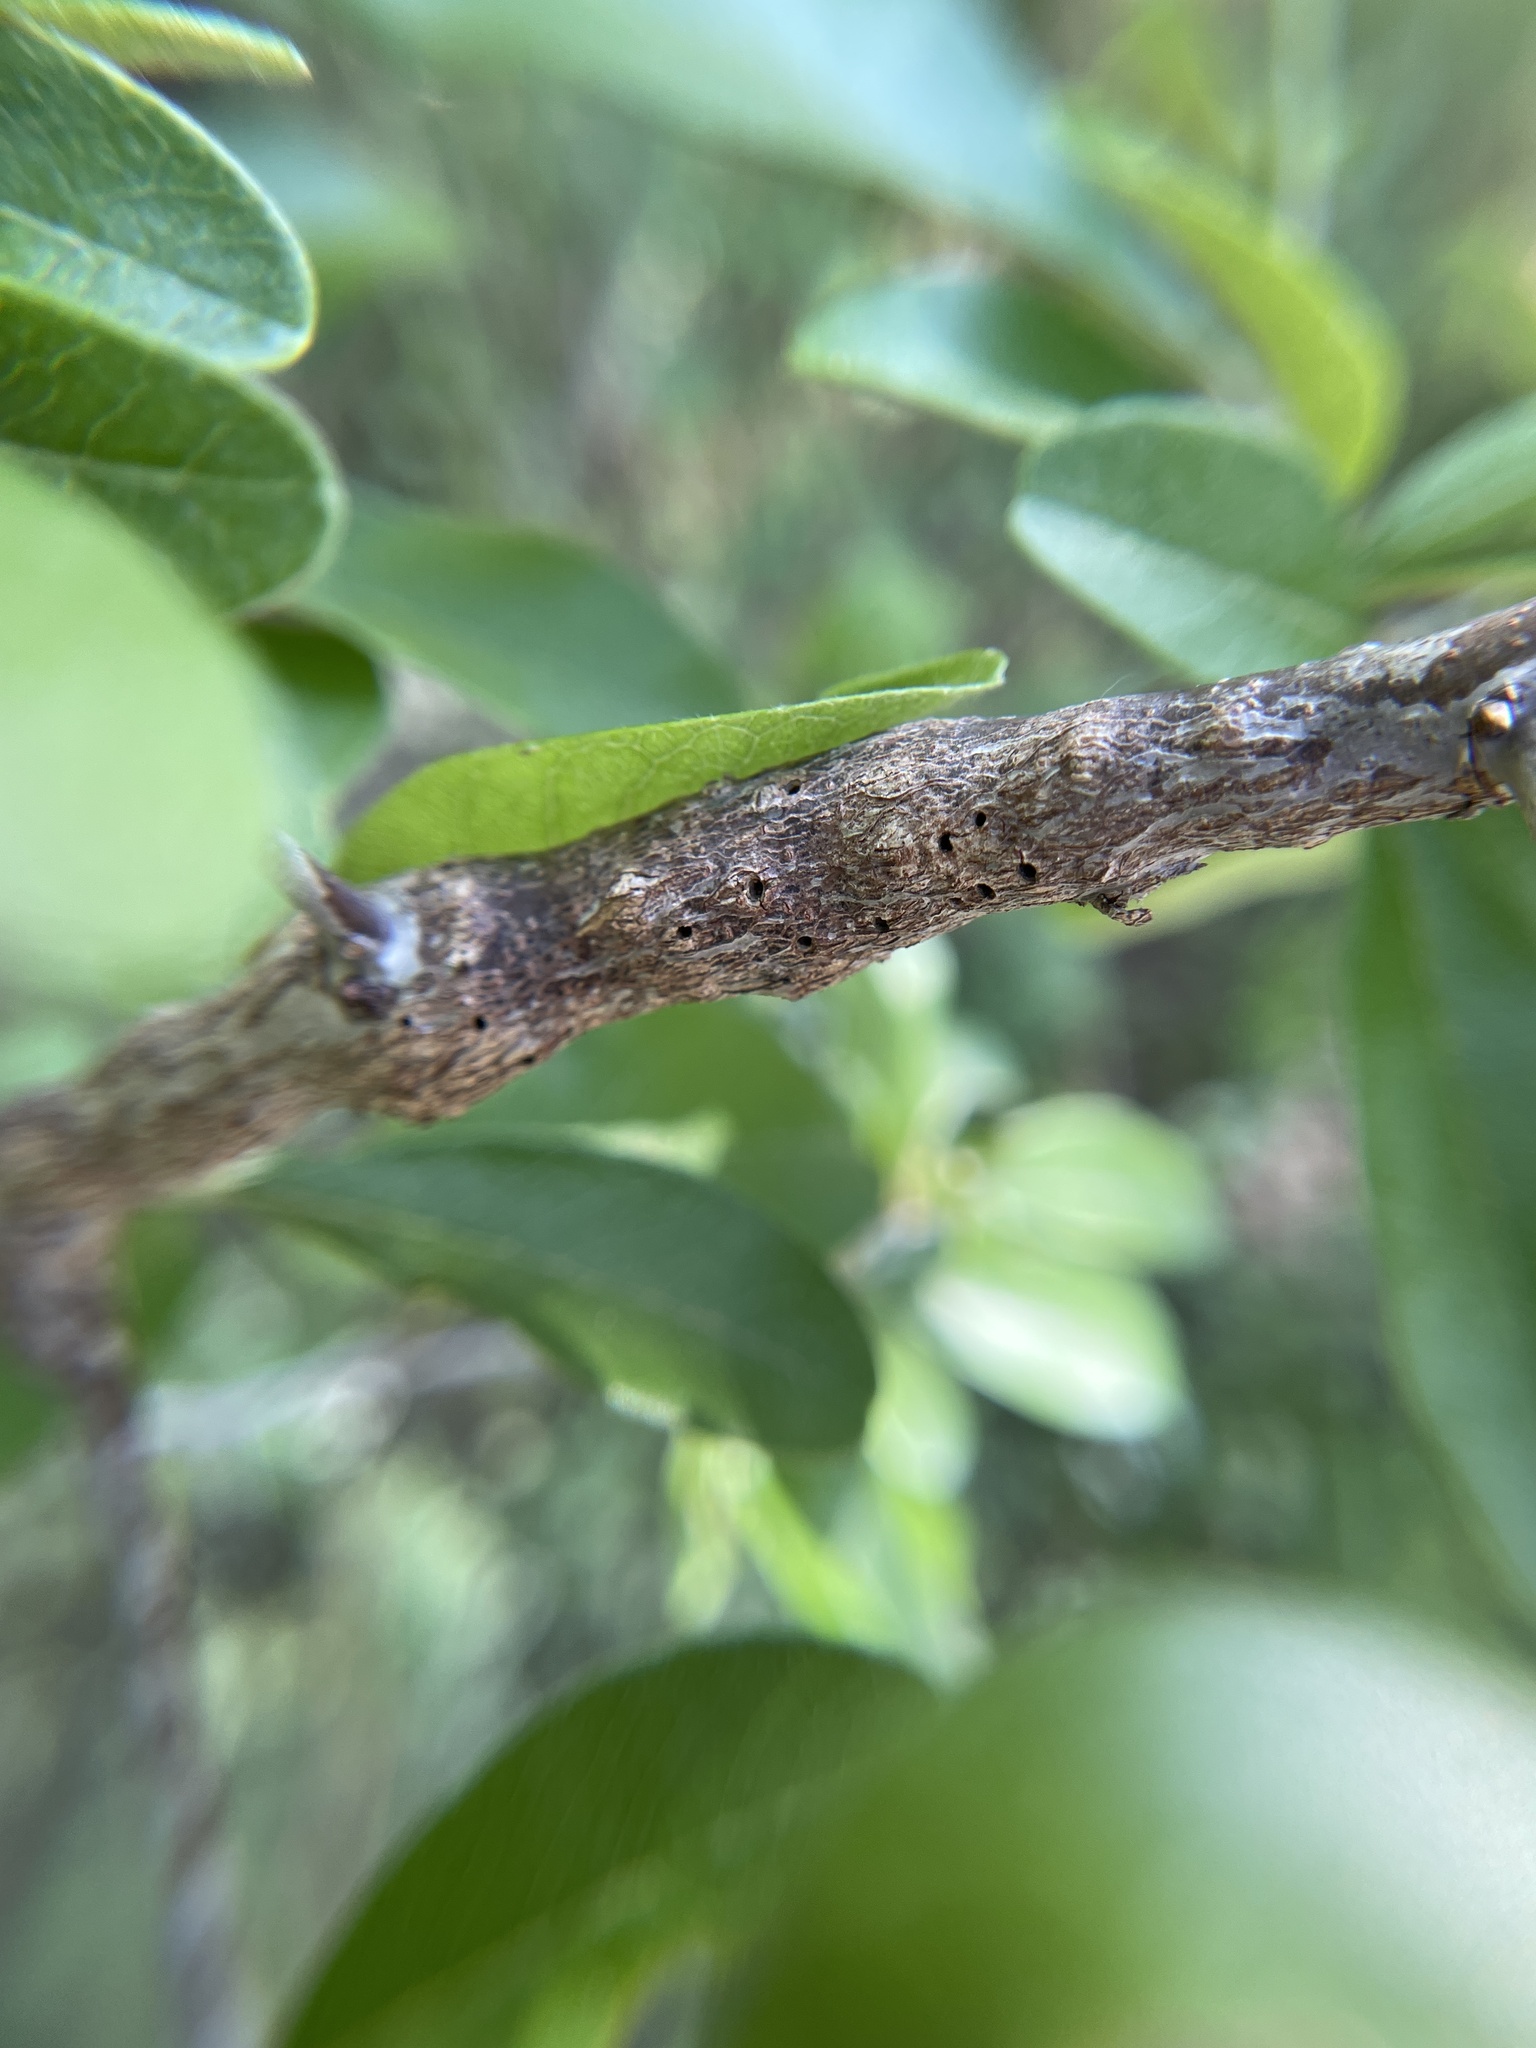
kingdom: Animalia
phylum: Arthropoda
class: Insecta
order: Diptera
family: Cecidomyiidae
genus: Bruggmanniella
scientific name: Bruggmanniella bumeliae
